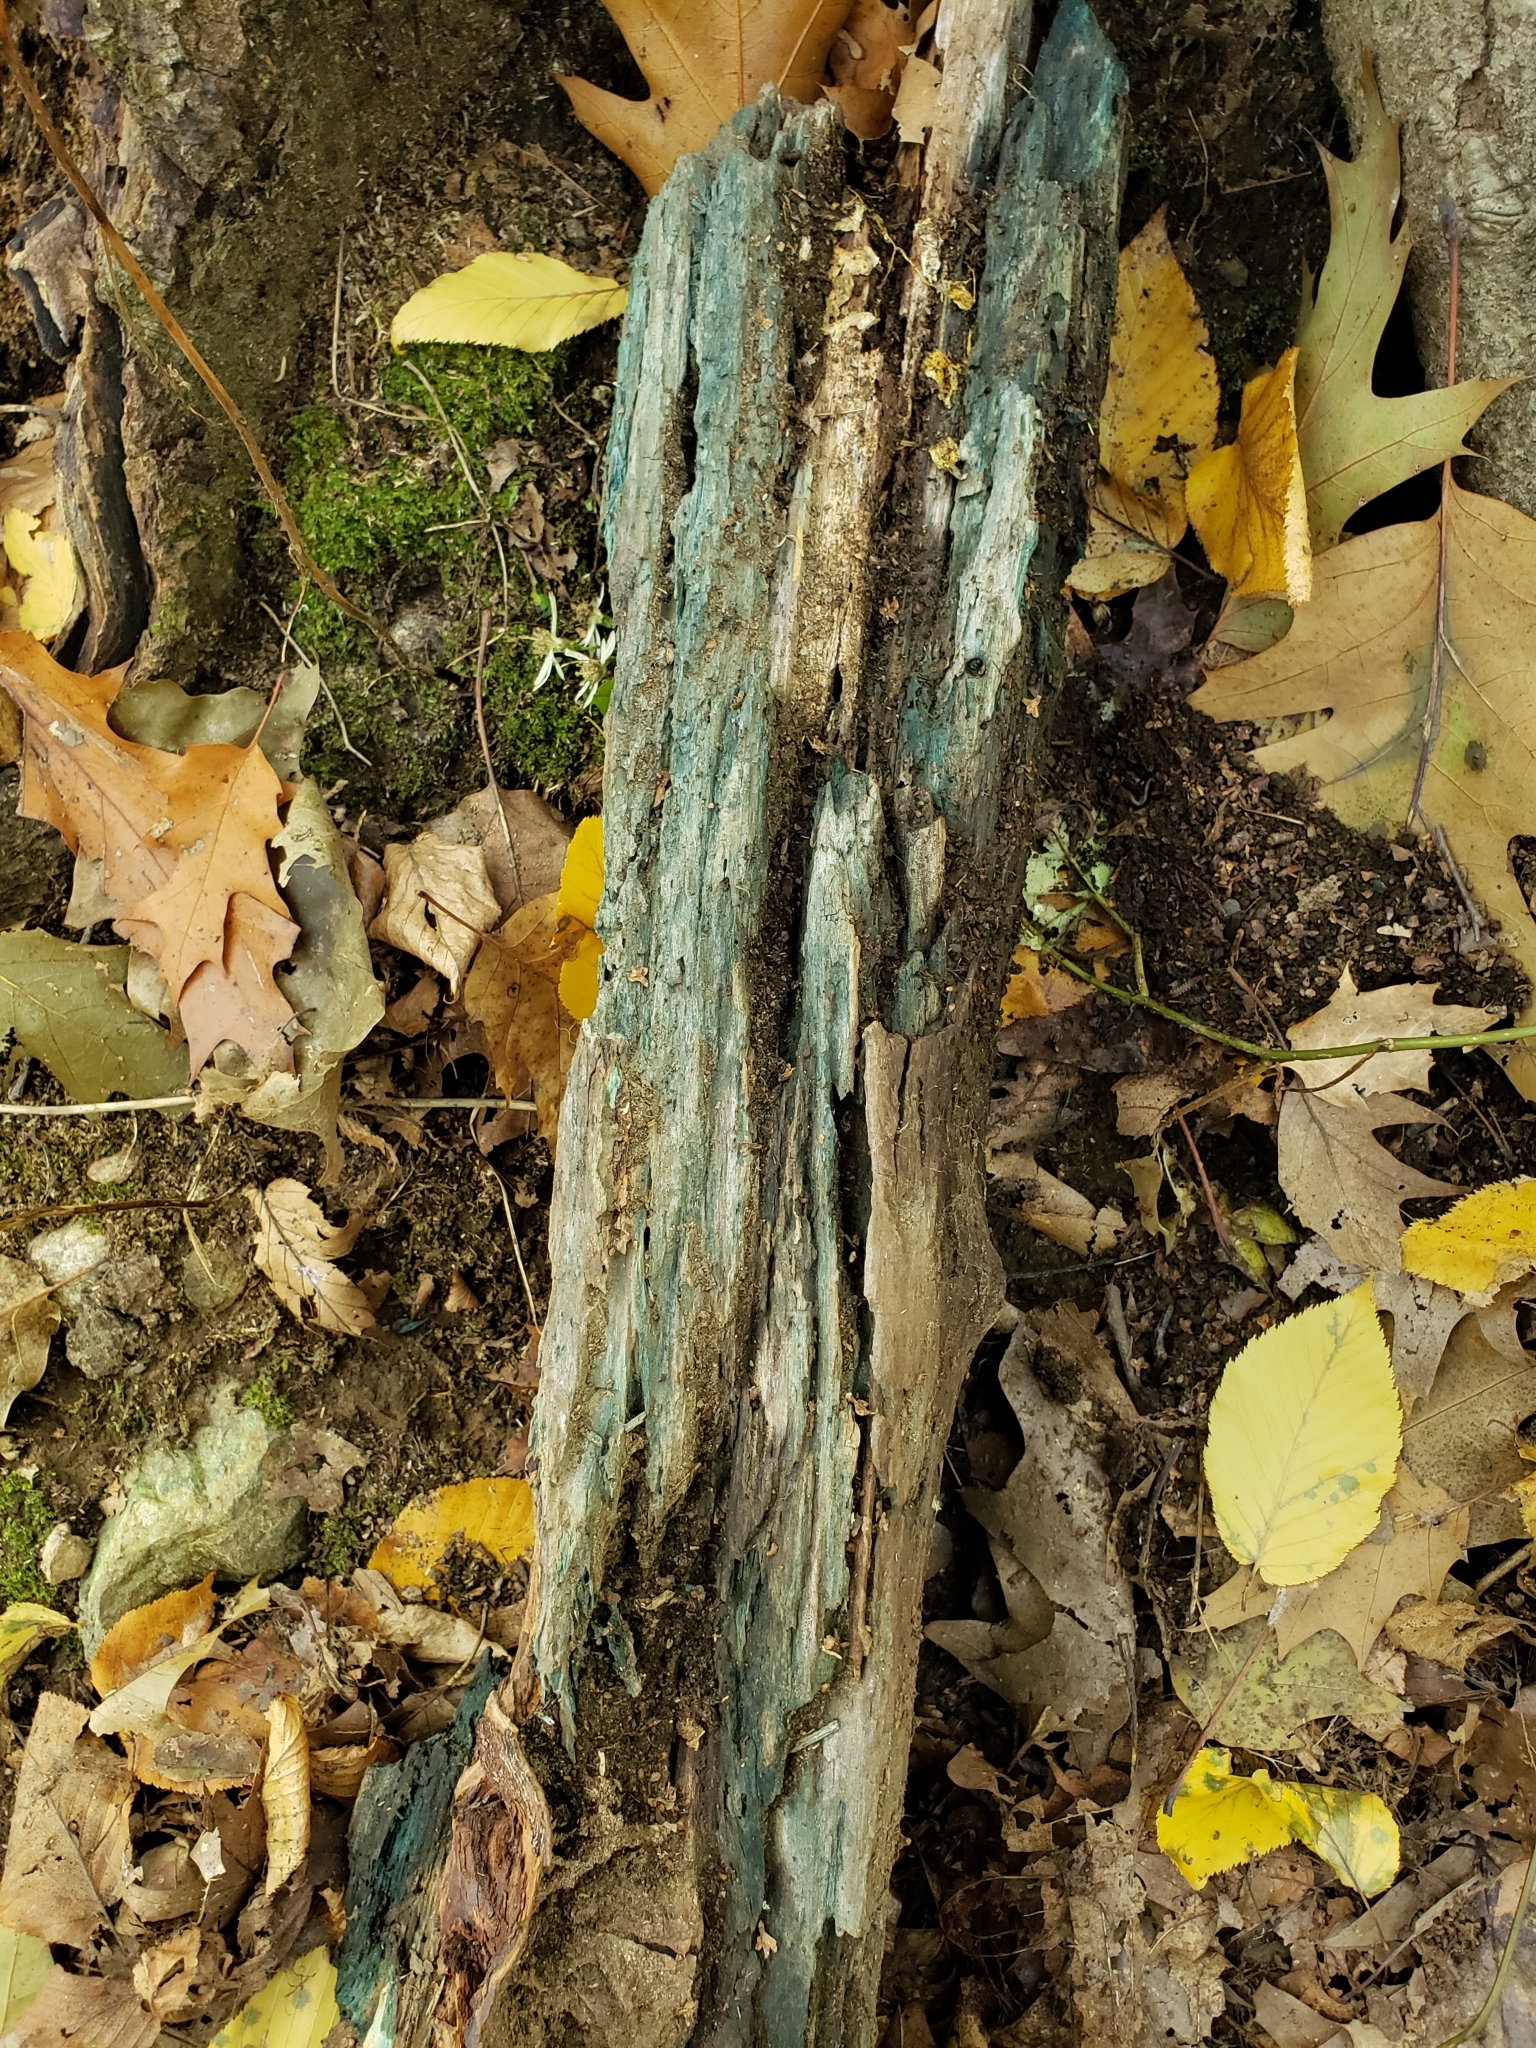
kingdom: Fungi
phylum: Ascomycota
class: Leotiomycetes
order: Helotiales
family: Chlorociboriaceae
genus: Chlorociboria
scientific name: Chlorociboria aeruginascens
